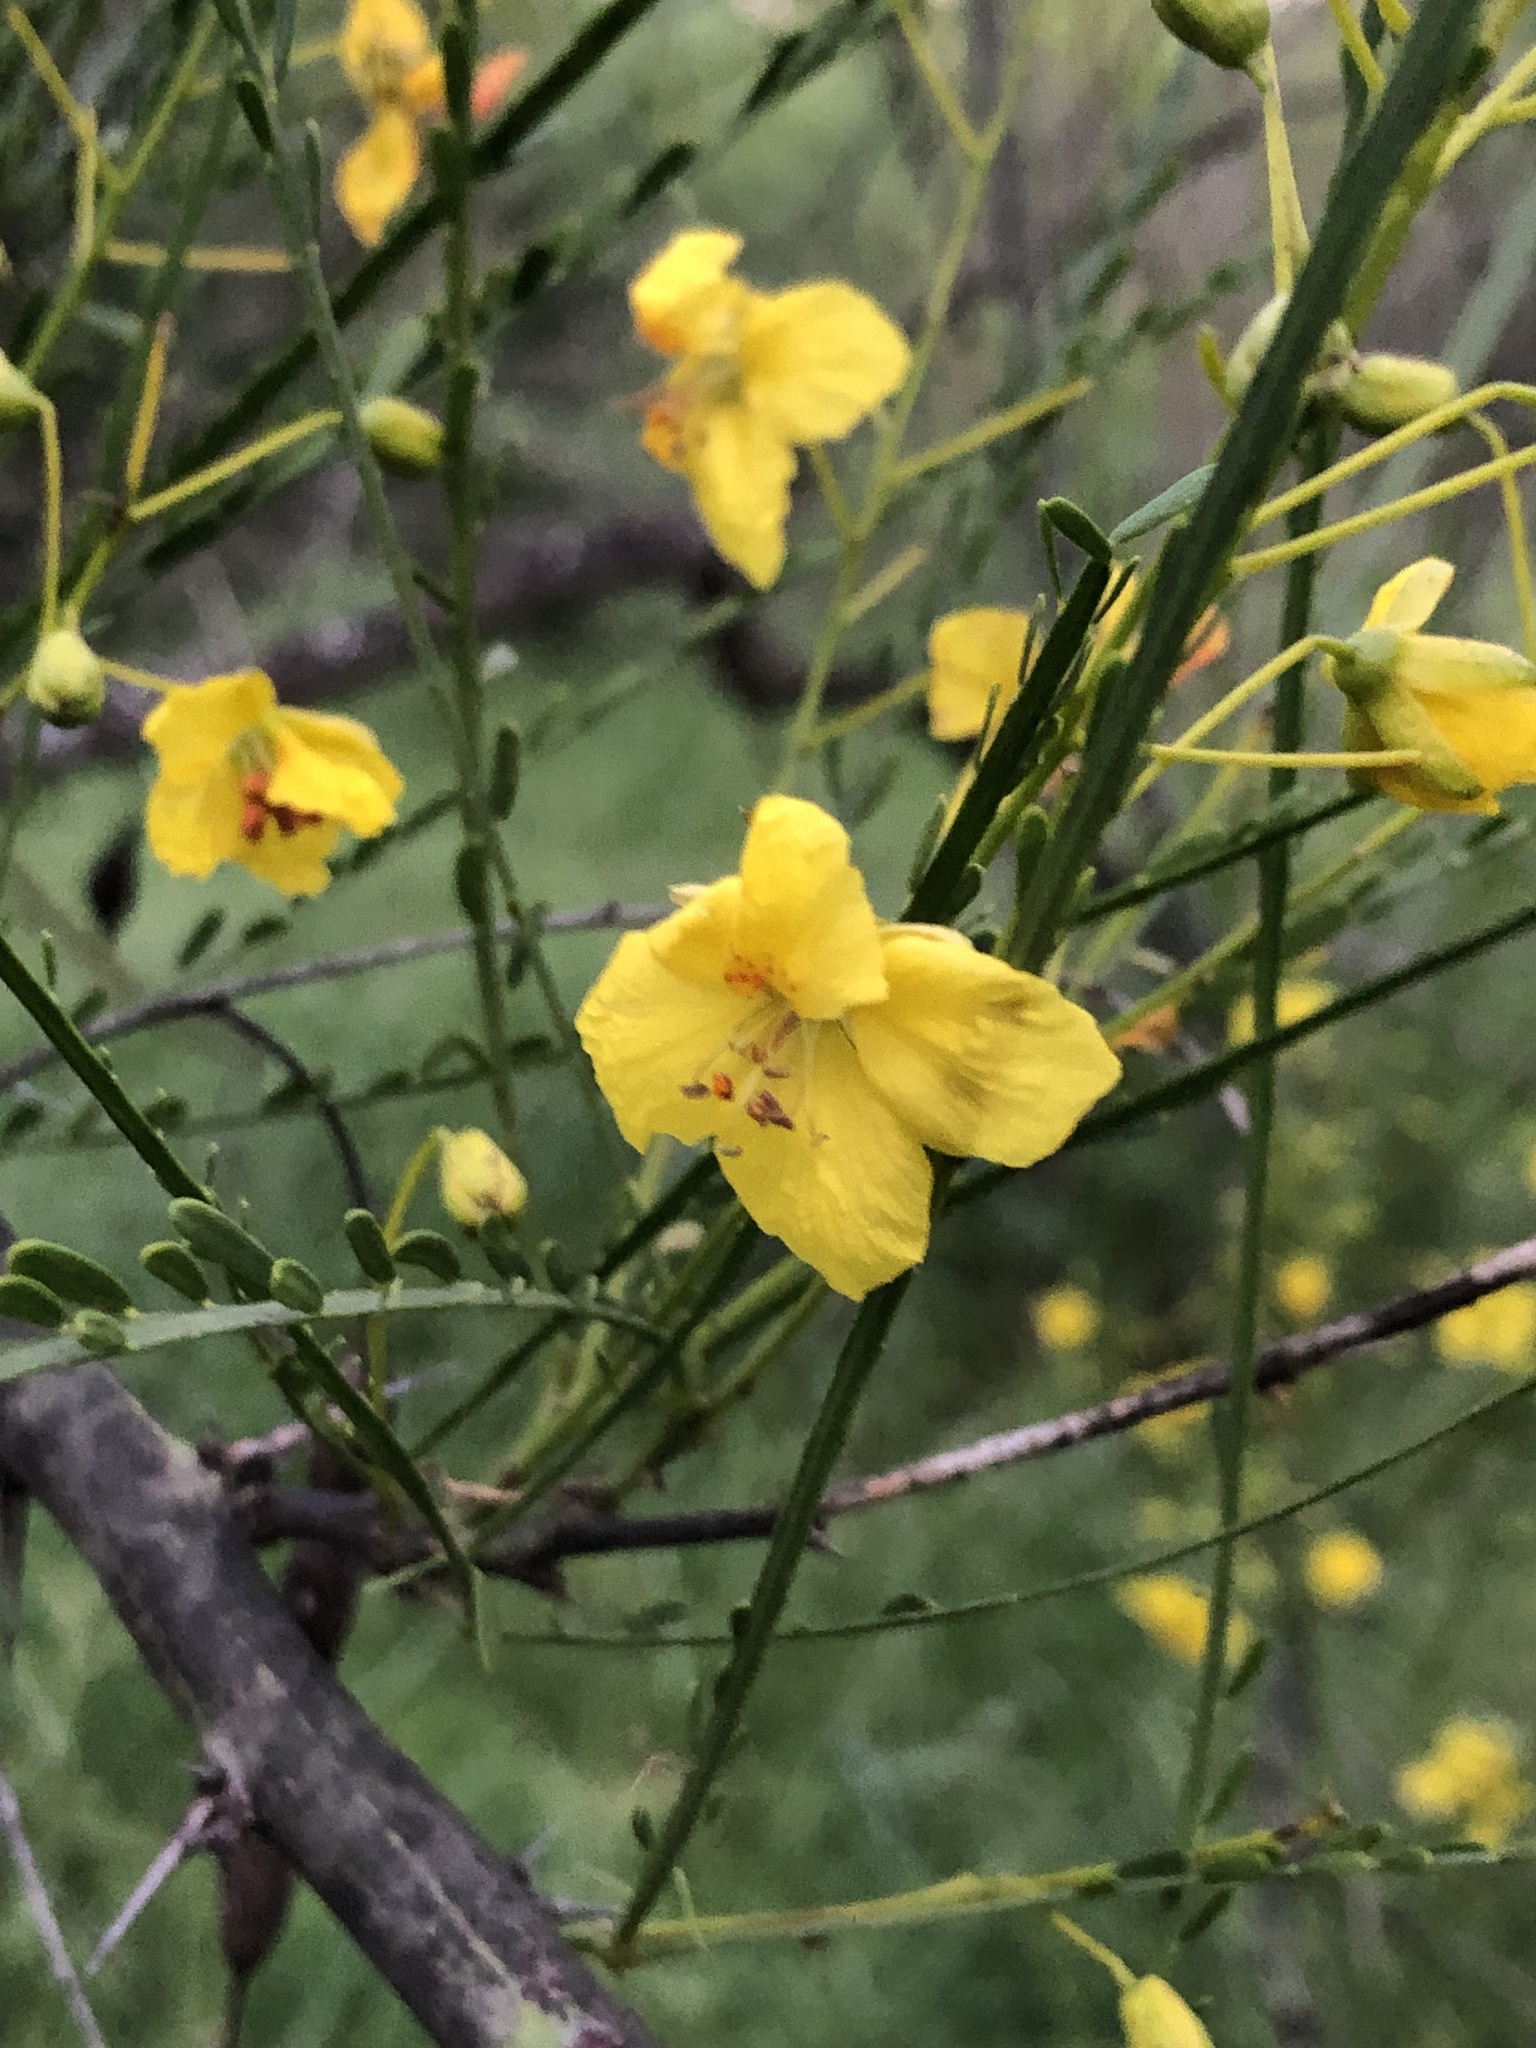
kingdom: Plantae
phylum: Tracheophyta
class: Magnoliopsida
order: Fabales
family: Fabaceae
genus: Parkinsonia
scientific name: Parkinsonia aculeata
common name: Jerusalem thorn
